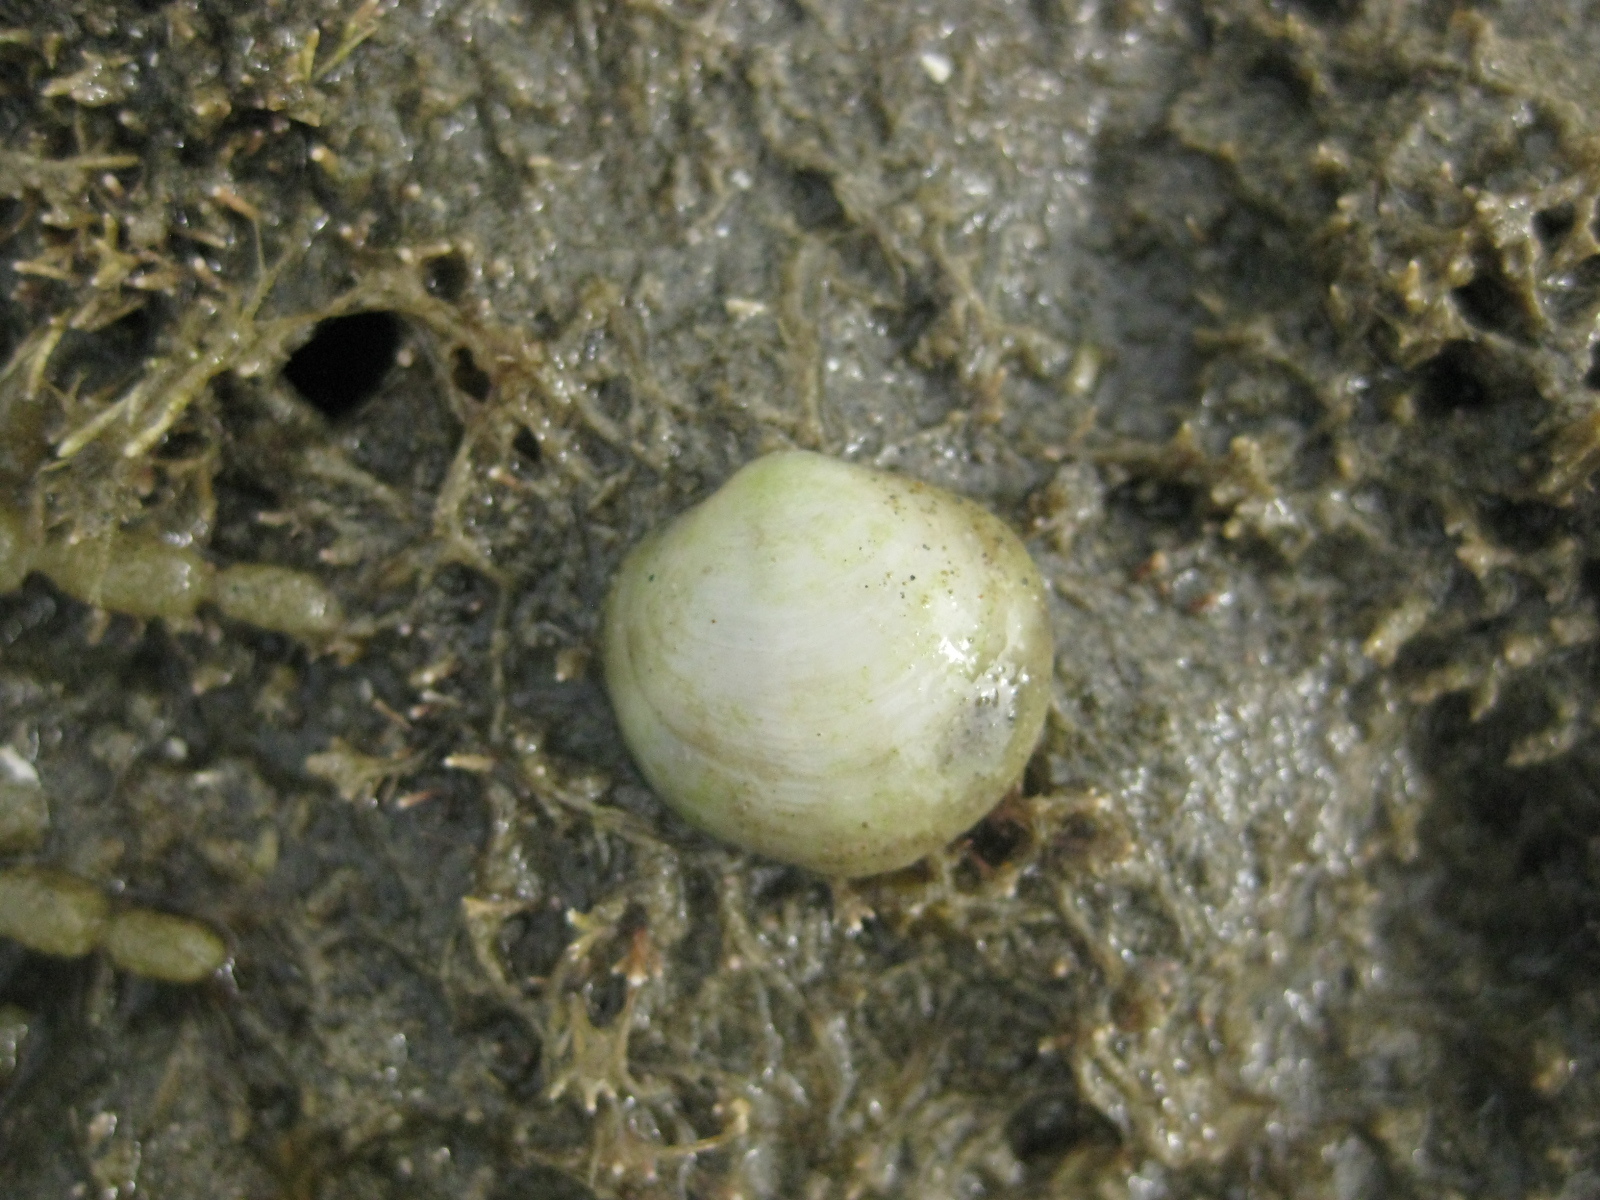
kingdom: Animalia
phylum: Mollusca
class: Bivalvia
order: Venerida
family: Ungulinidae
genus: Zemysina
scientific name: Zemysina striatula
